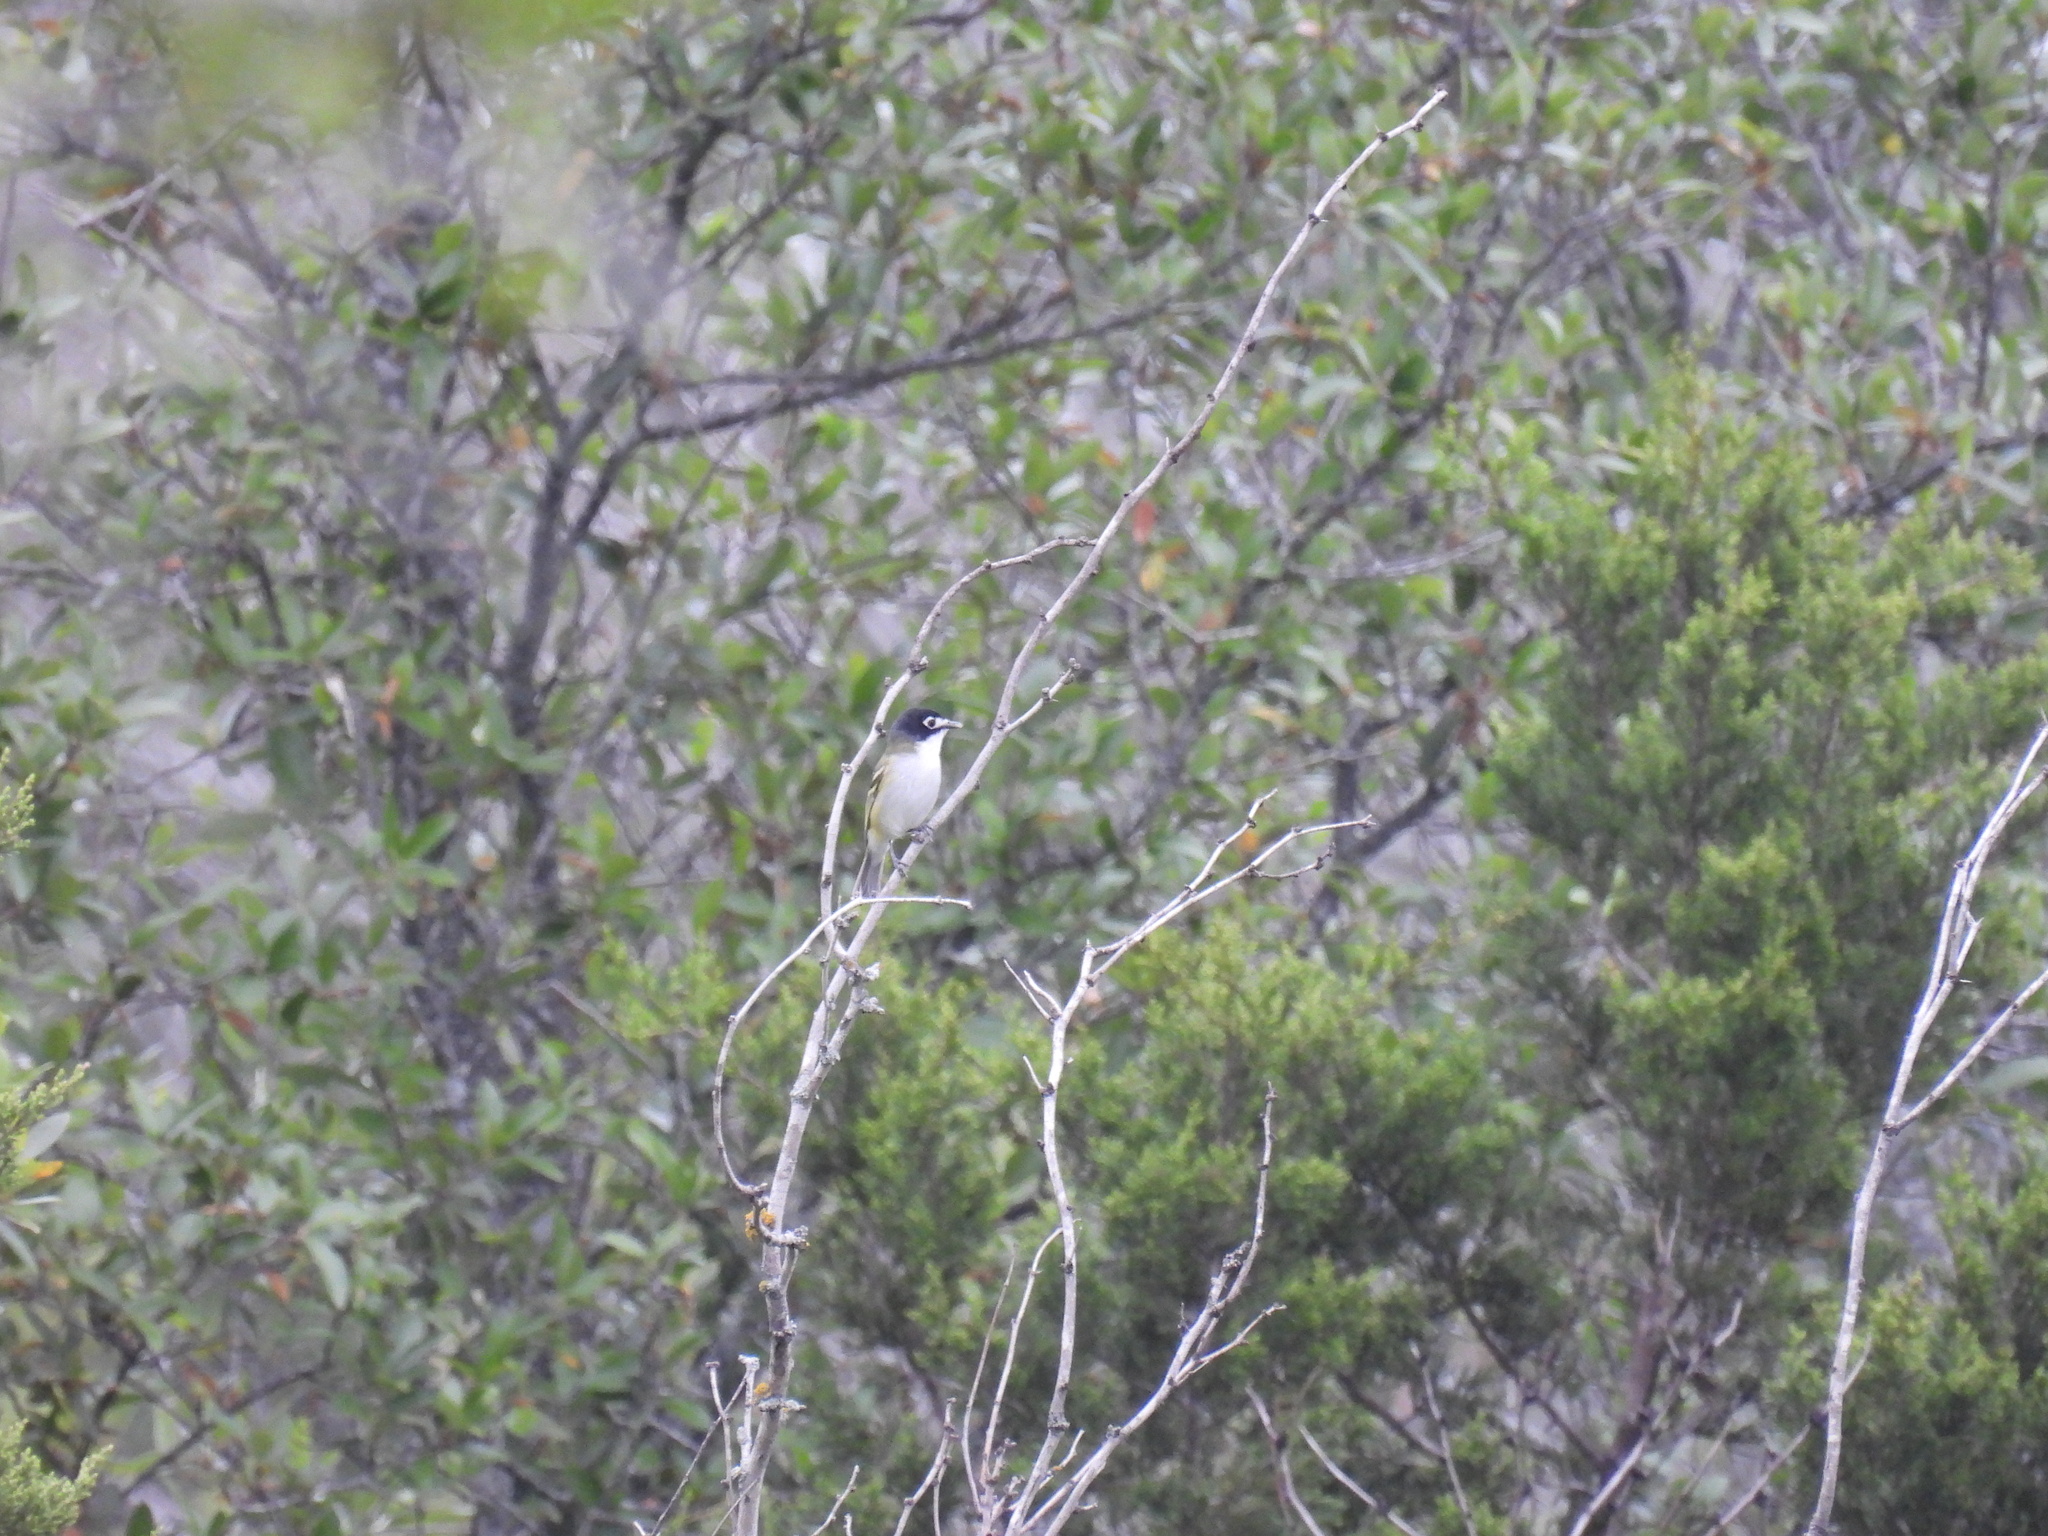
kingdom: Animalia
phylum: Chordata
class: Aves
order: Passeriformes
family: Vireonidae
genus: Vireo
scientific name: Vireo atricapilla
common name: Black-capped vireo
